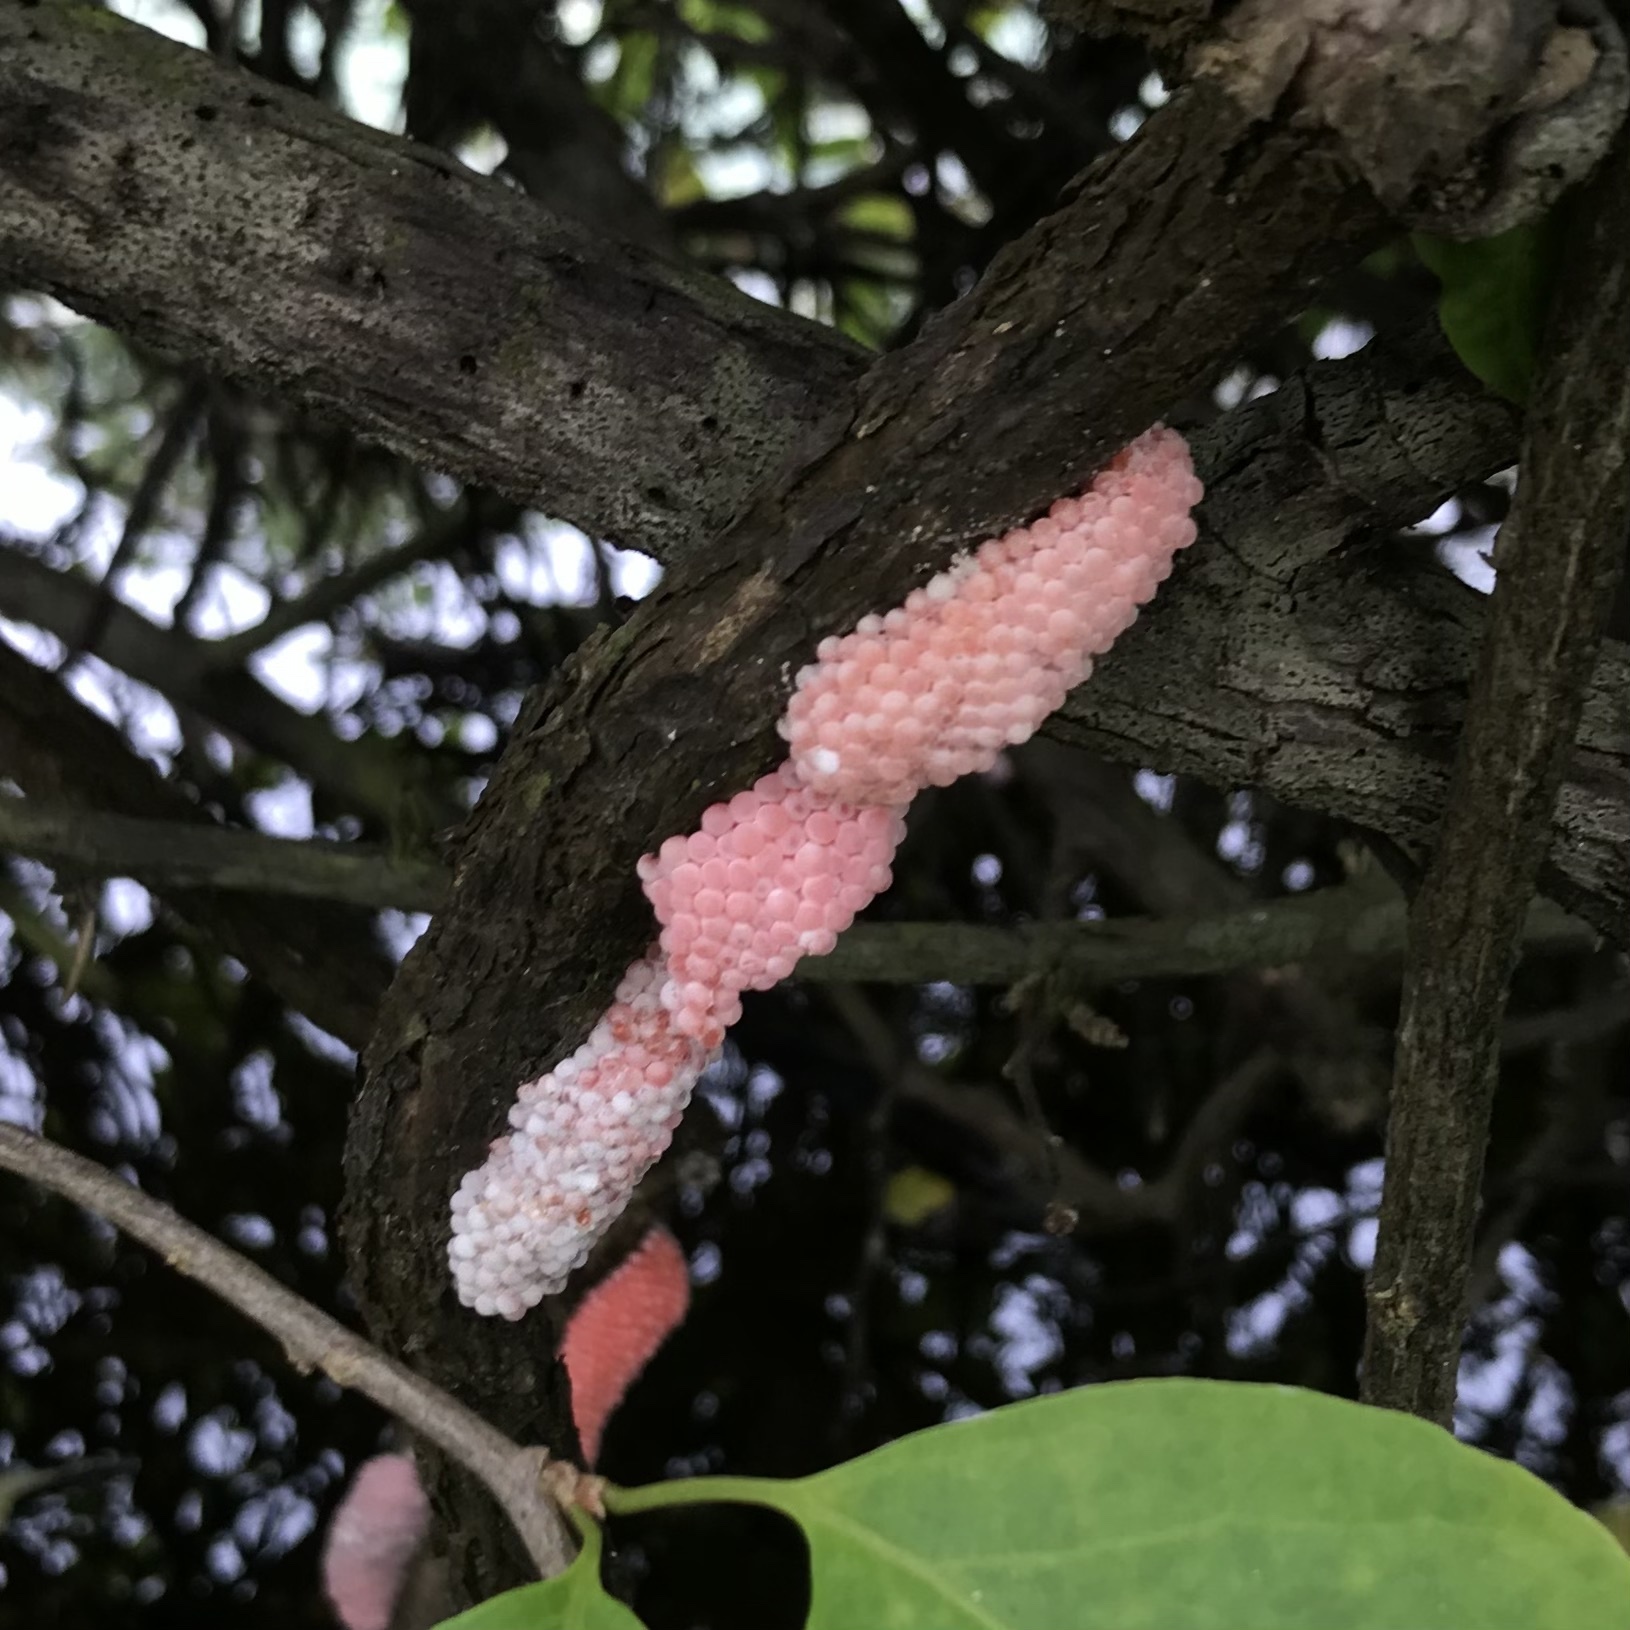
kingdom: Animalia
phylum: Mollusca
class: Gastropoda
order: Architaenioglossa
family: Ampullariidae
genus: Pomacea
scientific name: Pomacea canaliculata
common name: Channeled applesnail
